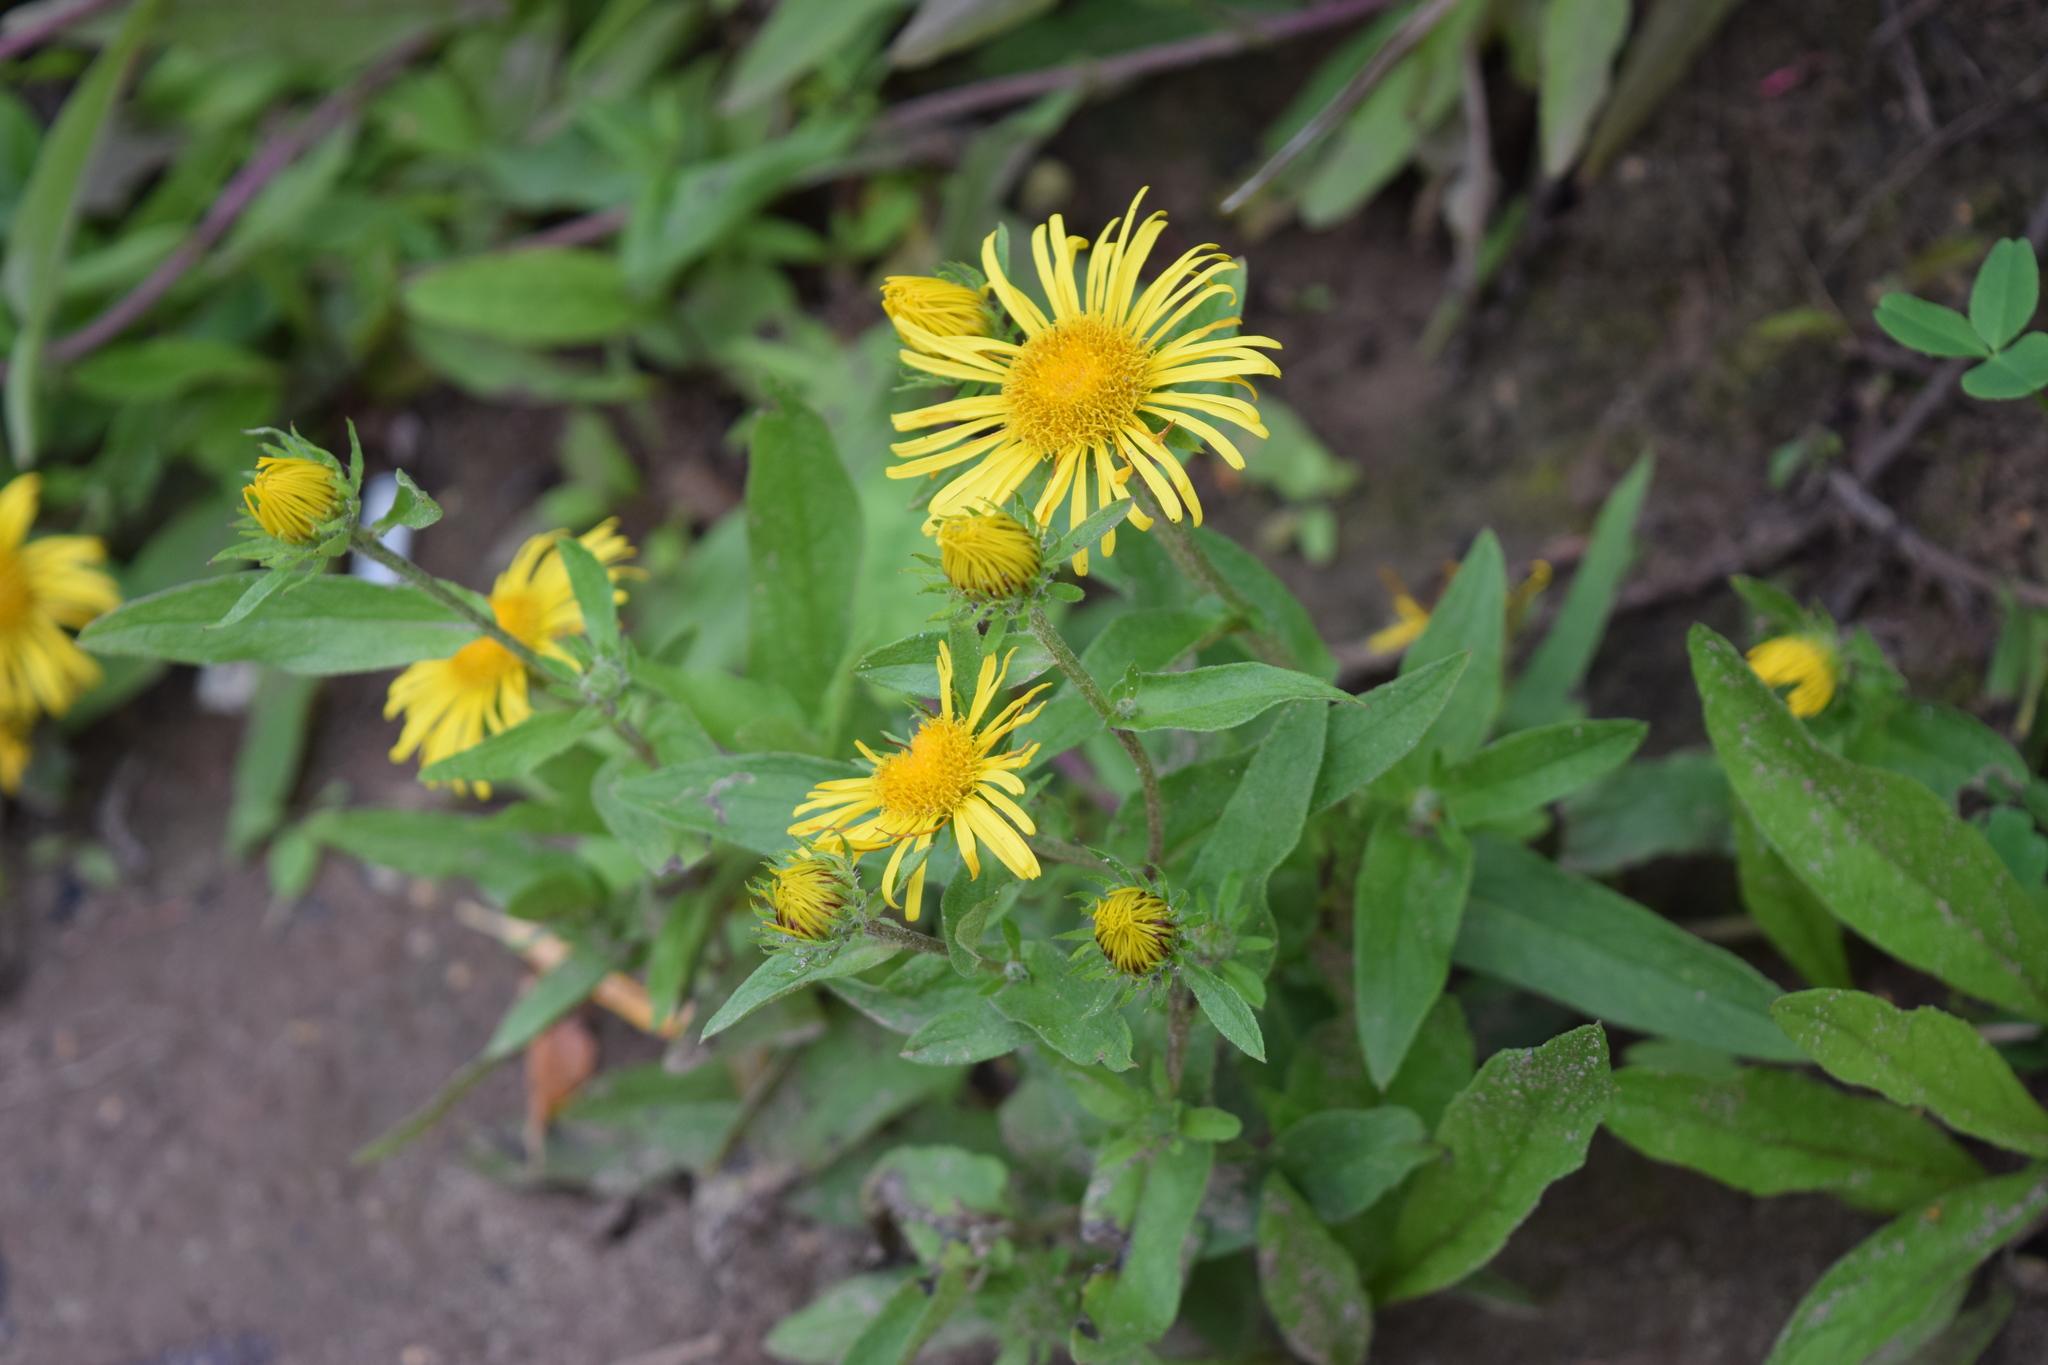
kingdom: Plantae
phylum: Tracheophyta
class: Magnoliopsida
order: Asterales
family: Asteraceae
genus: Pentanema
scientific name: Pentanema britannicum
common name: British elecampane
